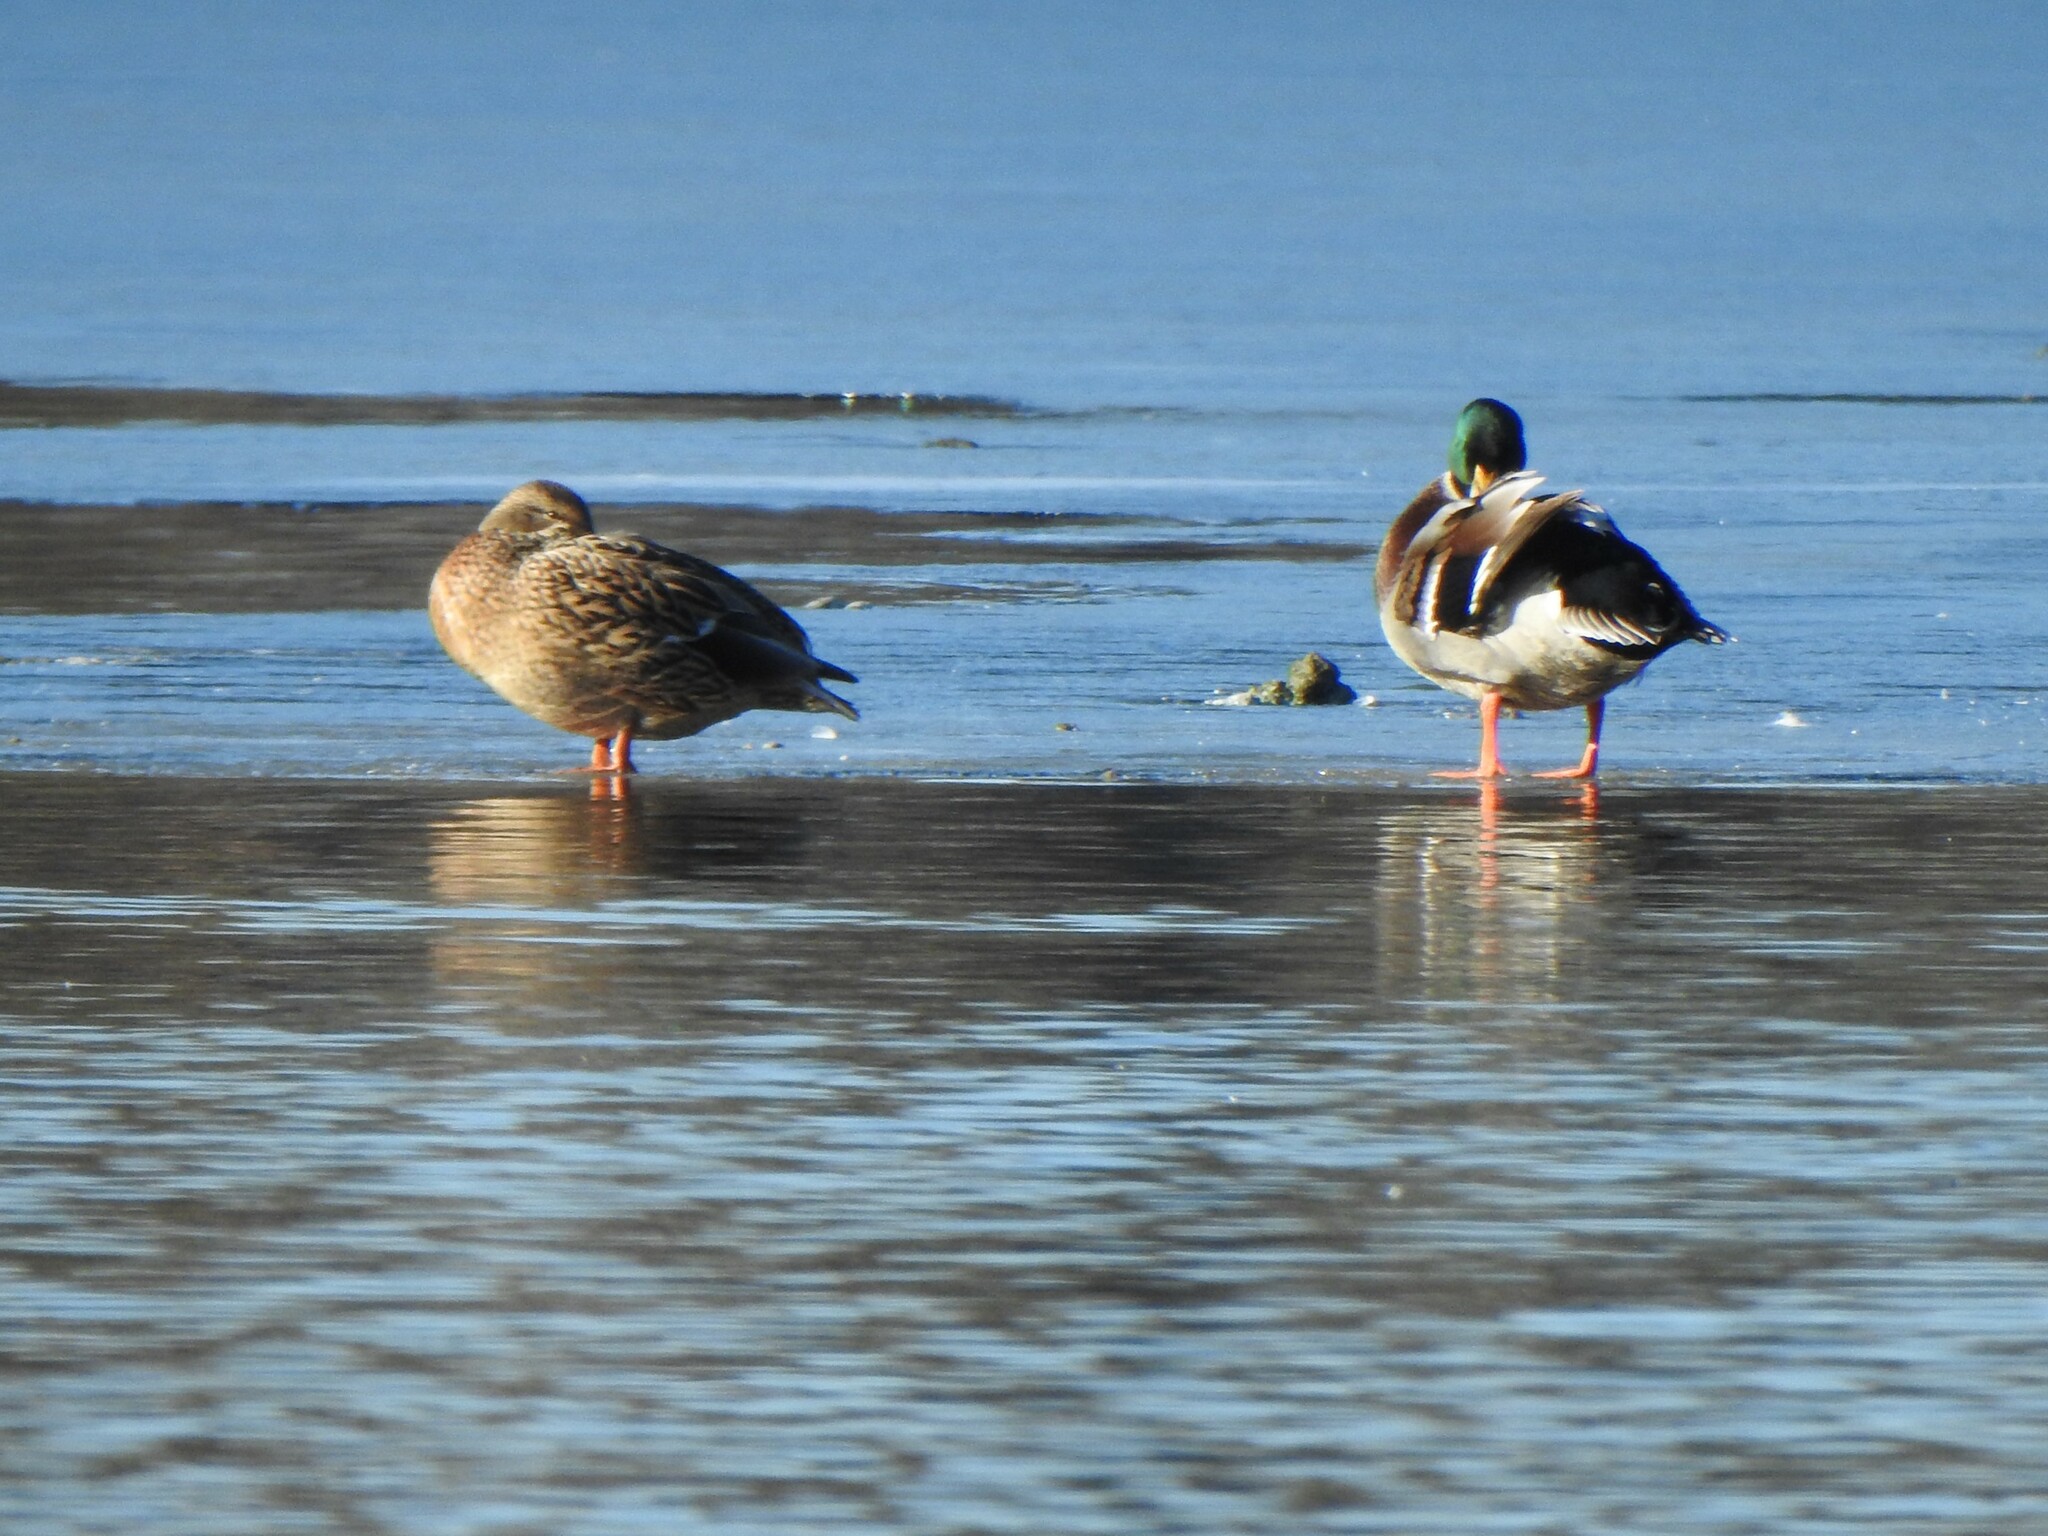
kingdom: Animalia
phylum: Chordata
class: Aves
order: Anseriformes
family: Anatidae
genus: Anas
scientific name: Anas platyrhynchos
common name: Mallard
